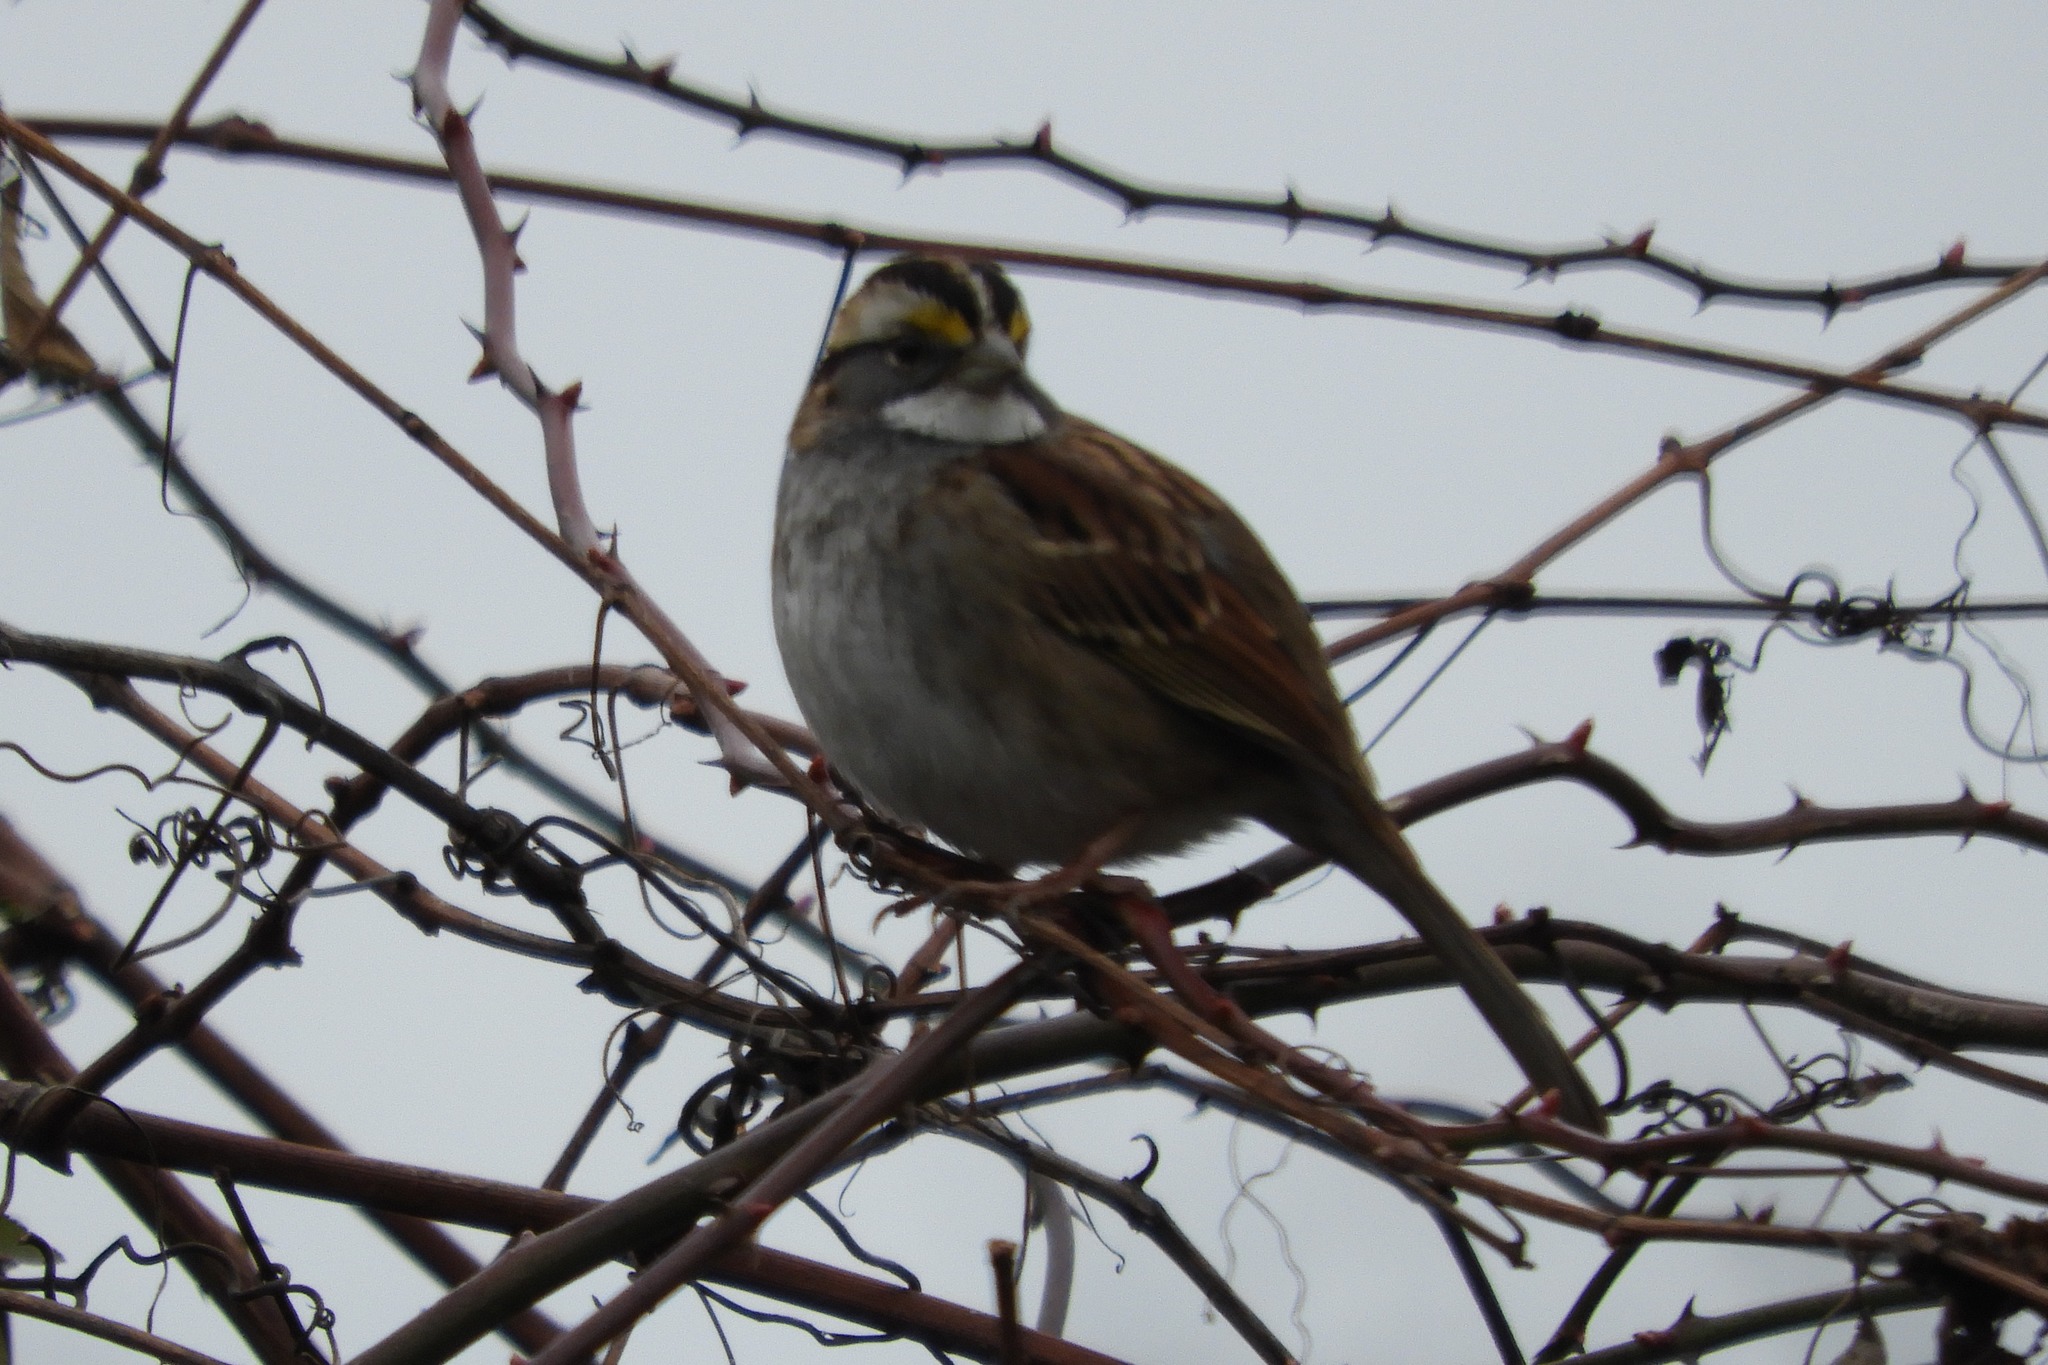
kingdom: Animalia
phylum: Chordata
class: Aves
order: Passeriformes
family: Passerellidae
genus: Zonotrichia
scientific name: Zonotrichia albicollis
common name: White-throated sparrow
